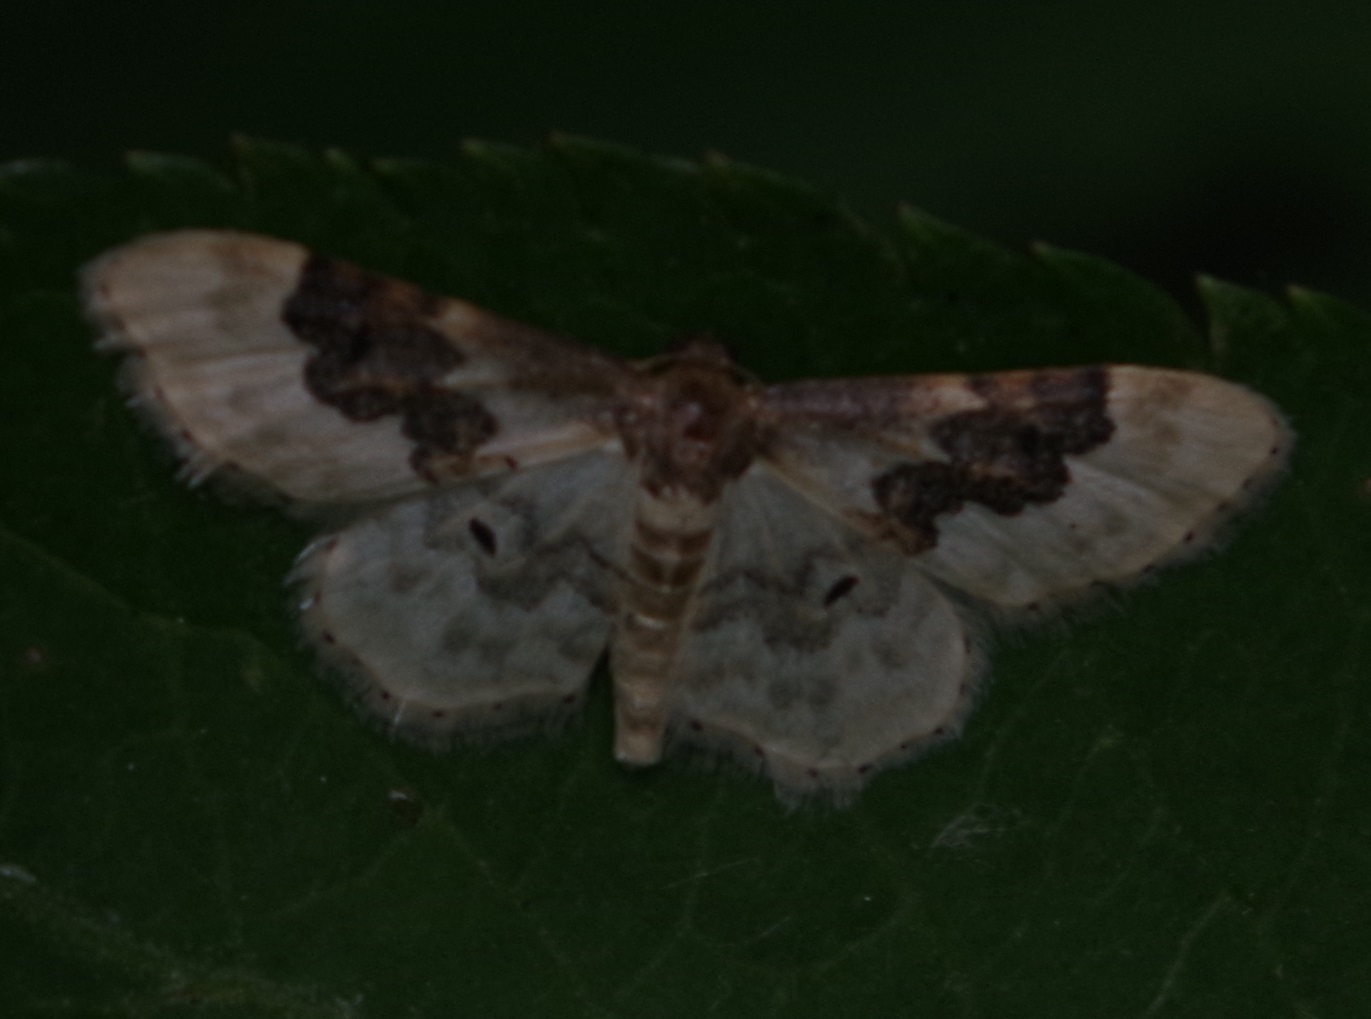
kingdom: Animalia
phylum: Arthropoda
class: Insecta
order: Lepidoptera
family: Geometridae
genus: Idaea
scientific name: Idaea rusticata
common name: Least carpet
